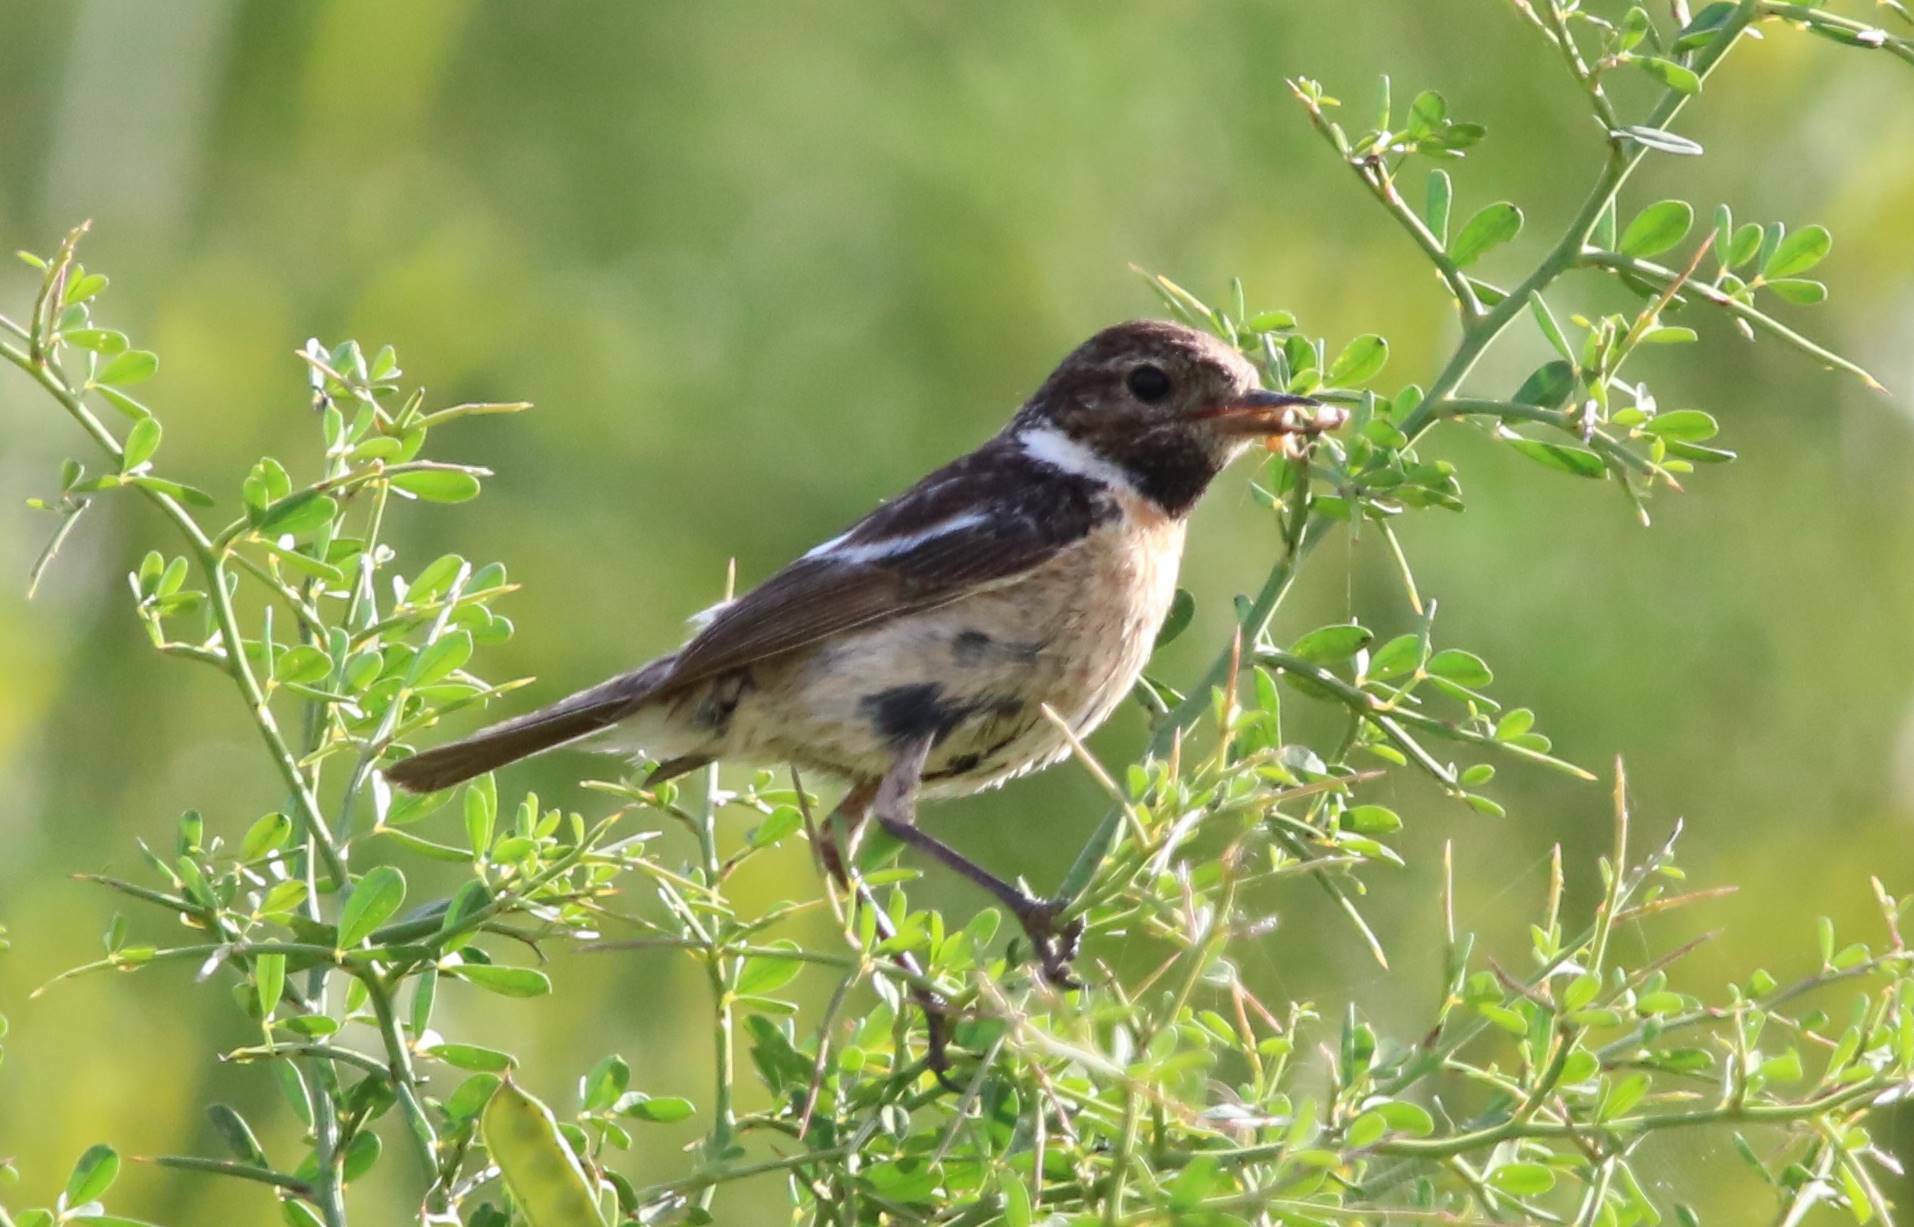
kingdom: Animalia
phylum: Chordata
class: Aves
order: Passeriformes
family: Muscicapidae
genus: Saxicola
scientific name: Saxicola rubicola
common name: European stonechat
